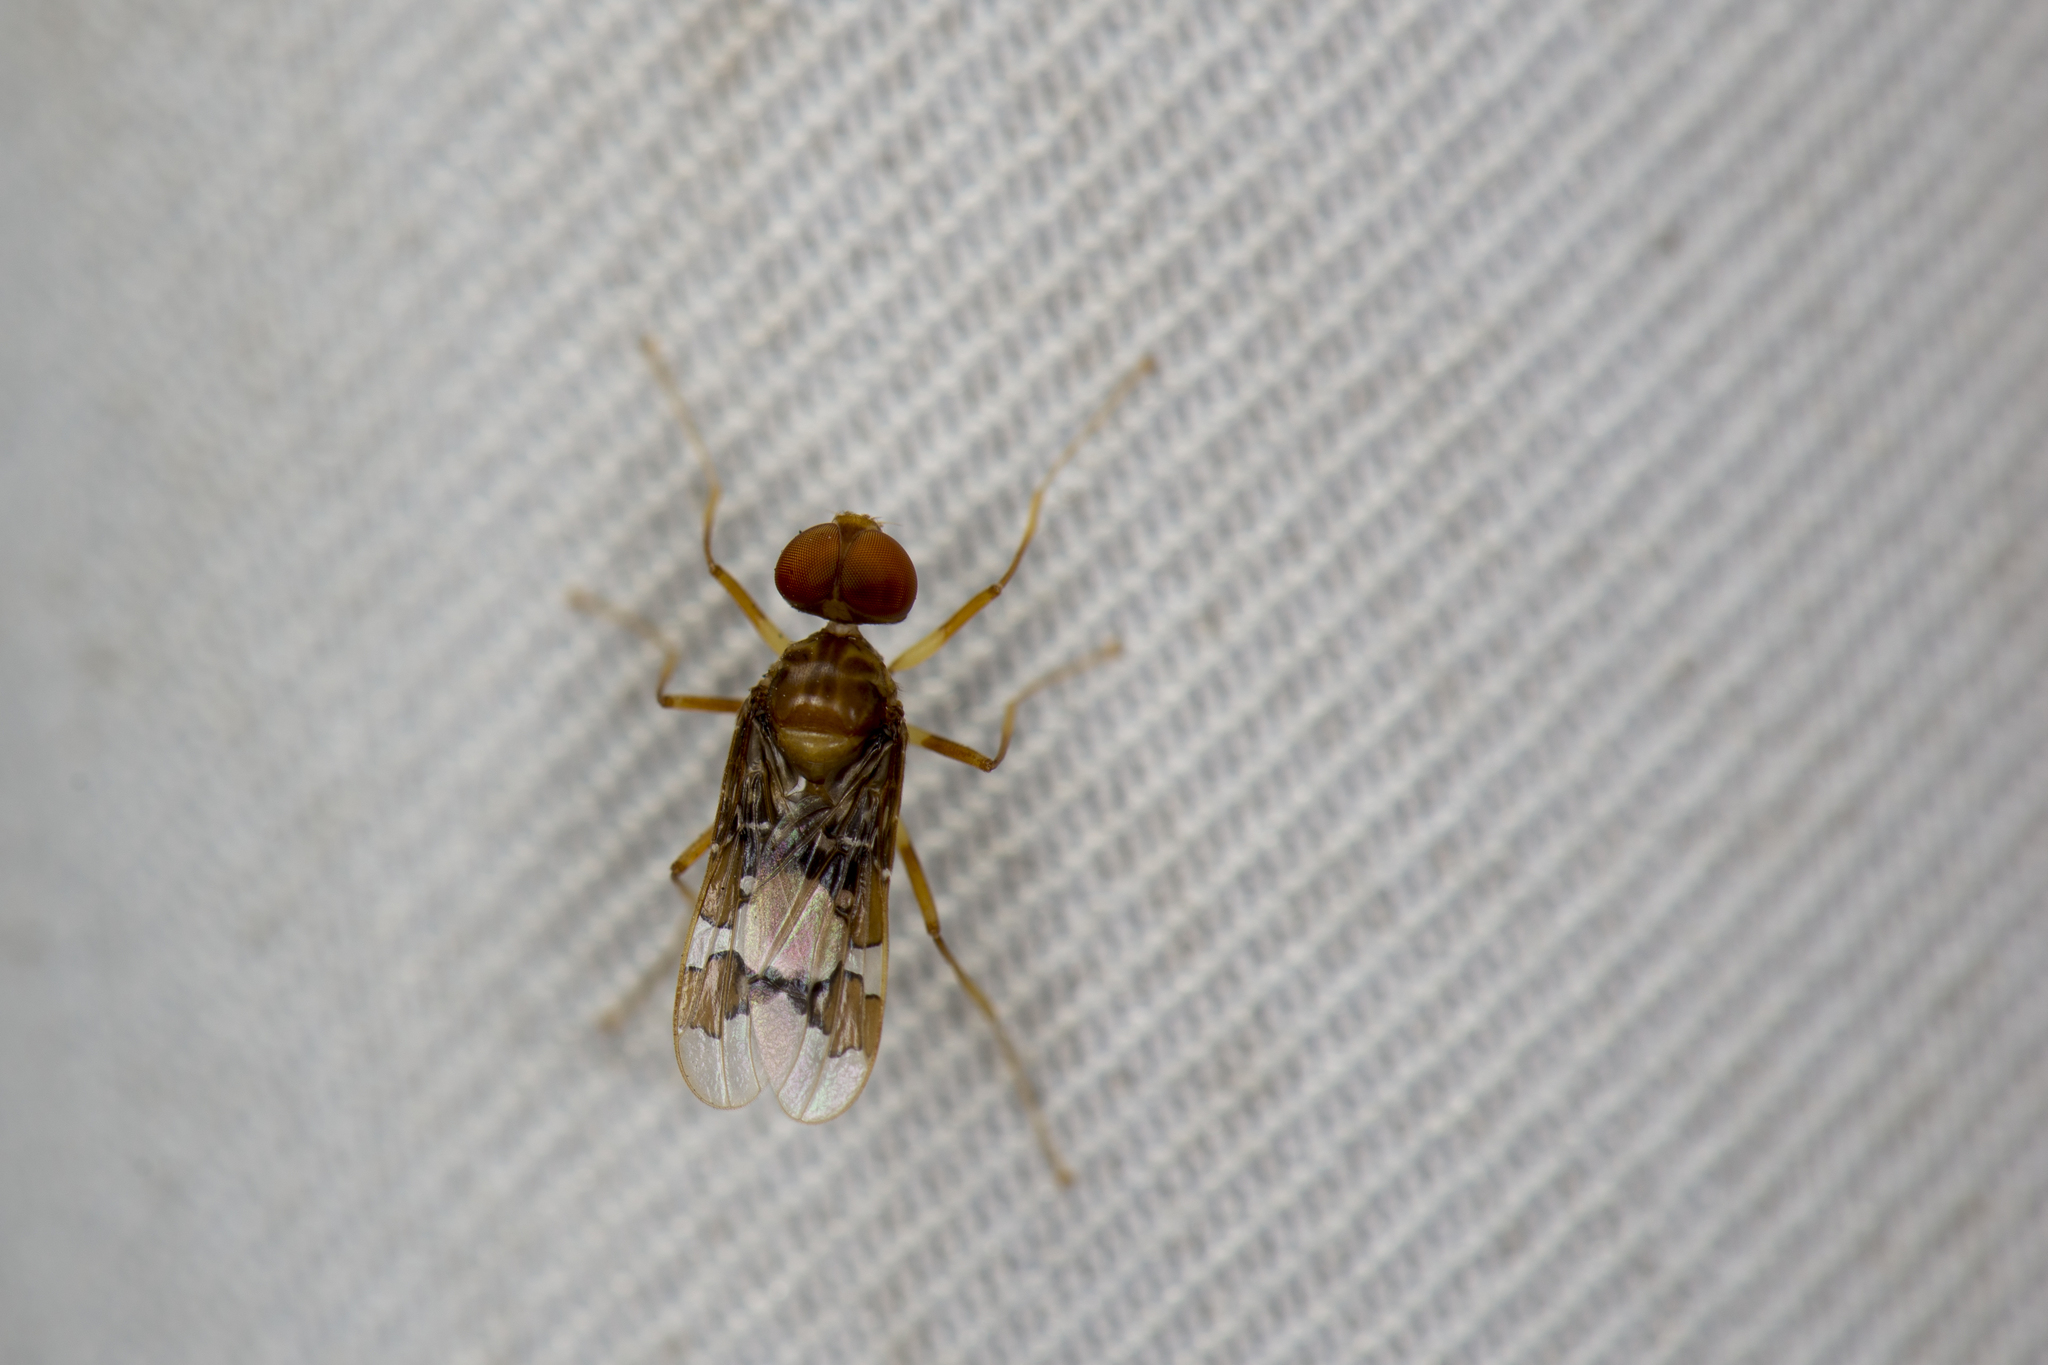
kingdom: Animalia
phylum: Arthropoda
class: Insecta
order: Diptera
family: Ctenostylidae
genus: Nepaliseta
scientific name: Nepaliseta ashleyi
